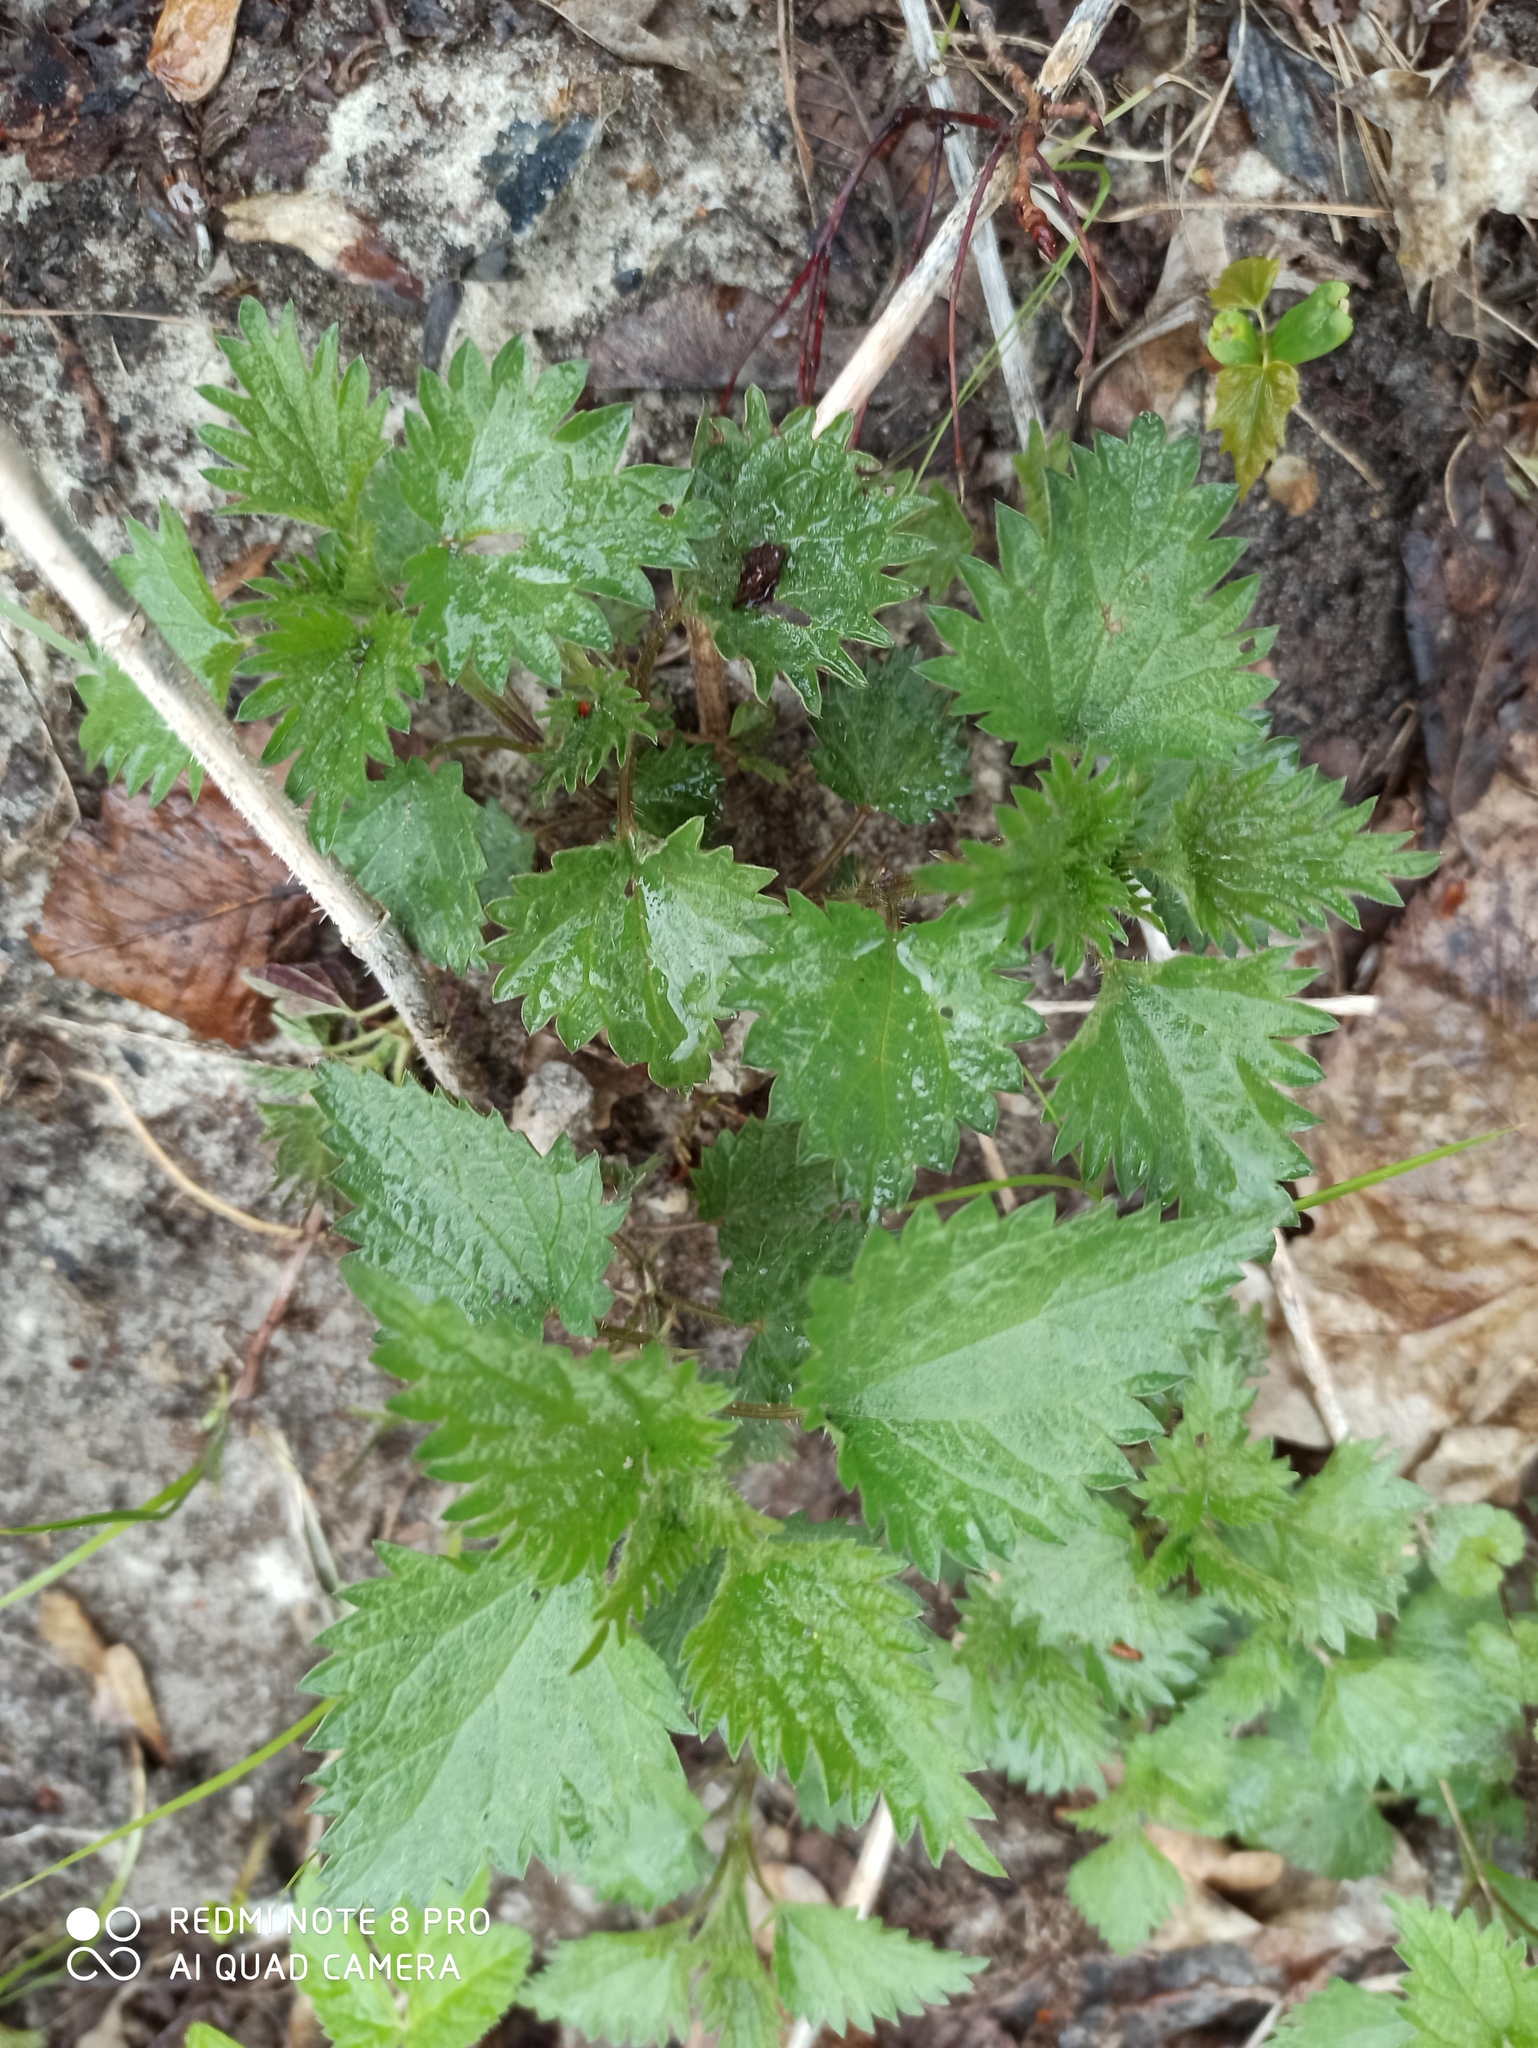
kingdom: Plantae
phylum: Tracheophyta
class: Magnoliopsida
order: Rosales
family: Urticaceae
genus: Urtica
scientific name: Urtica dioica
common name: Common nettle
